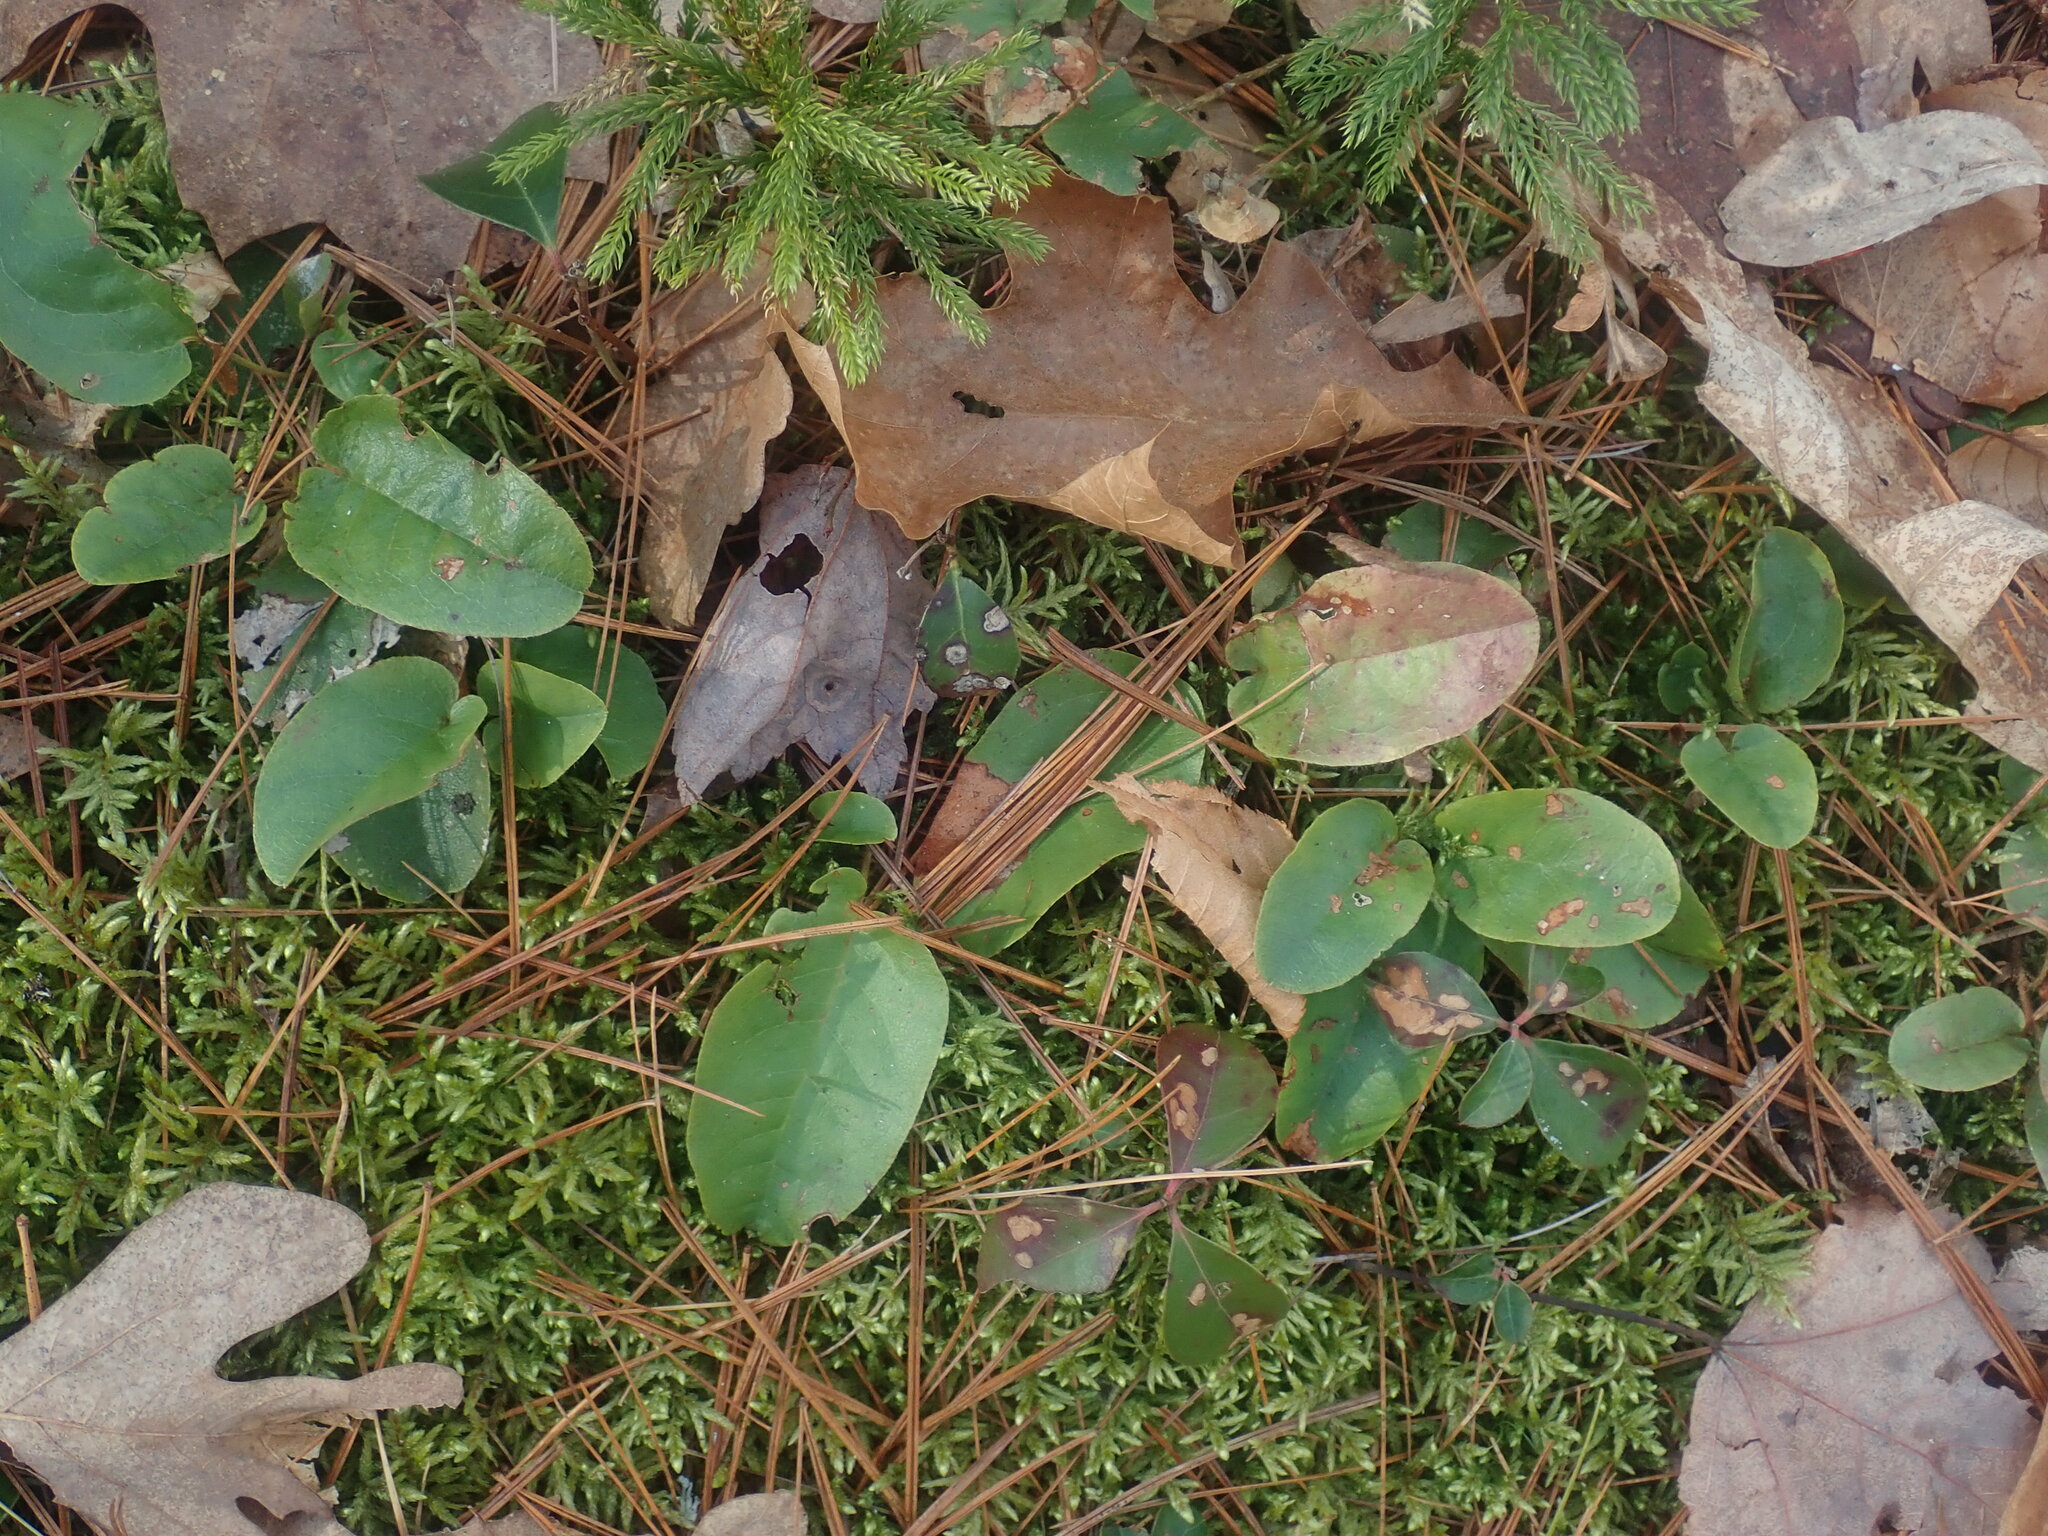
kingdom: Plantae
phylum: Tracheophyta
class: Magnoliopsida
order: Ericales
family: Ericaceae
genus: Epigaea
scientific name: Epigaea repens
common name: Gravelroot
